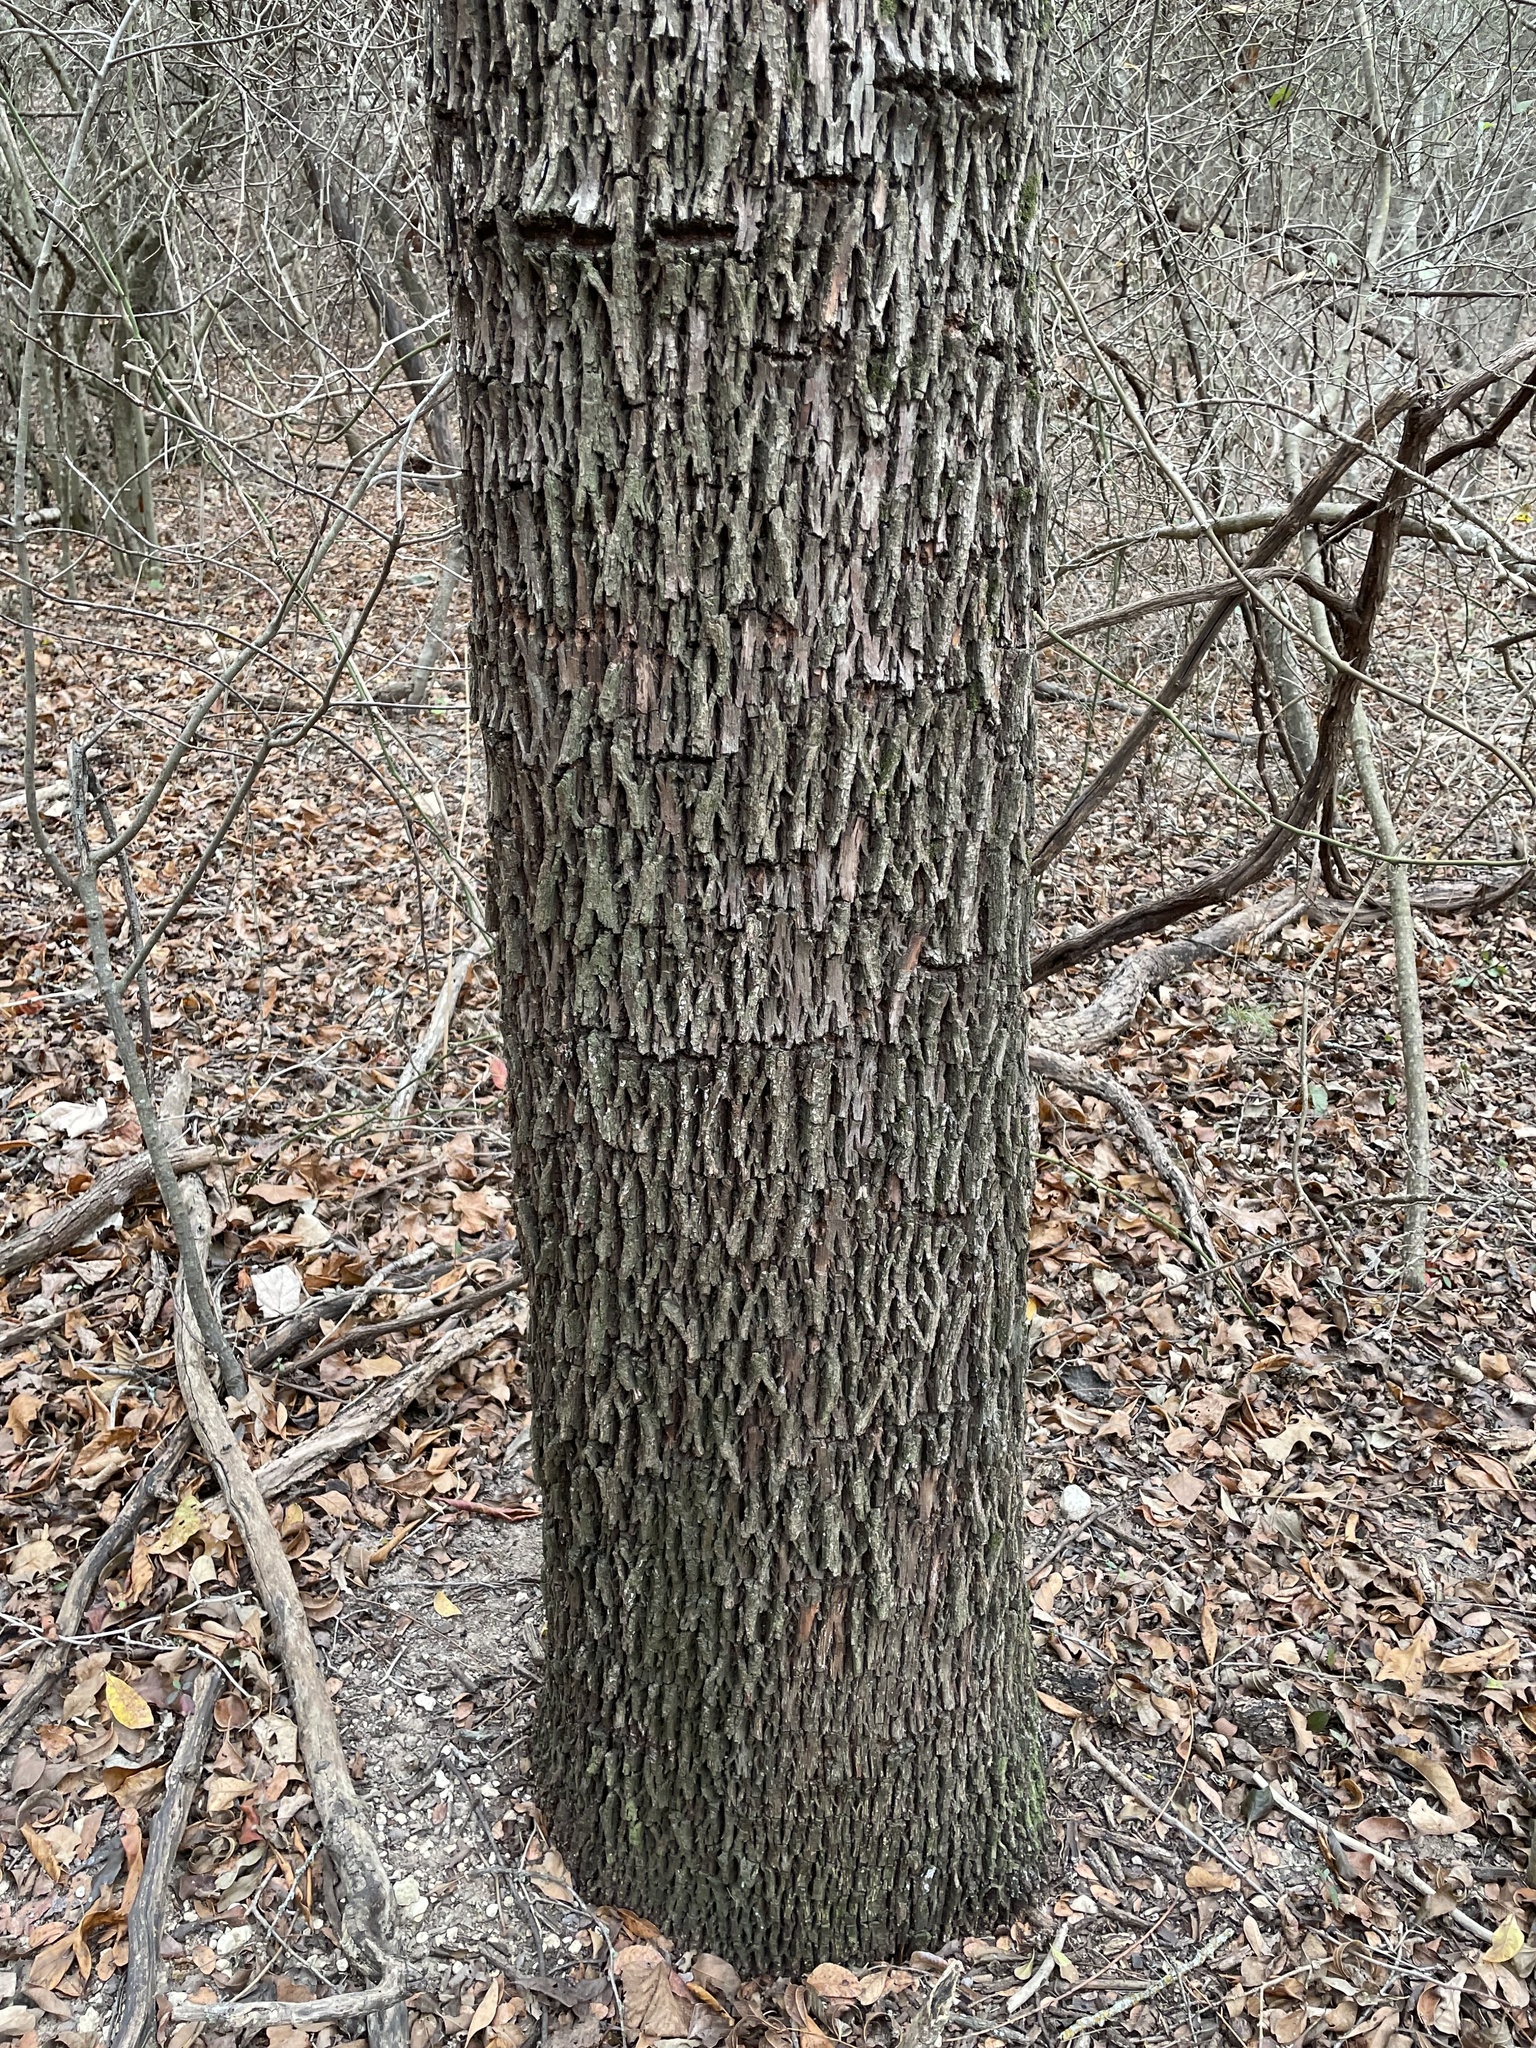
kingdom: Plantae
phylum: Tracheophyta
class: Magnoliopsida
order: Ericales
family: Sapotaceae
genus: Sideroxylon
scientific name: Sideroxylon lanuginosum
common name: Chittamwood
